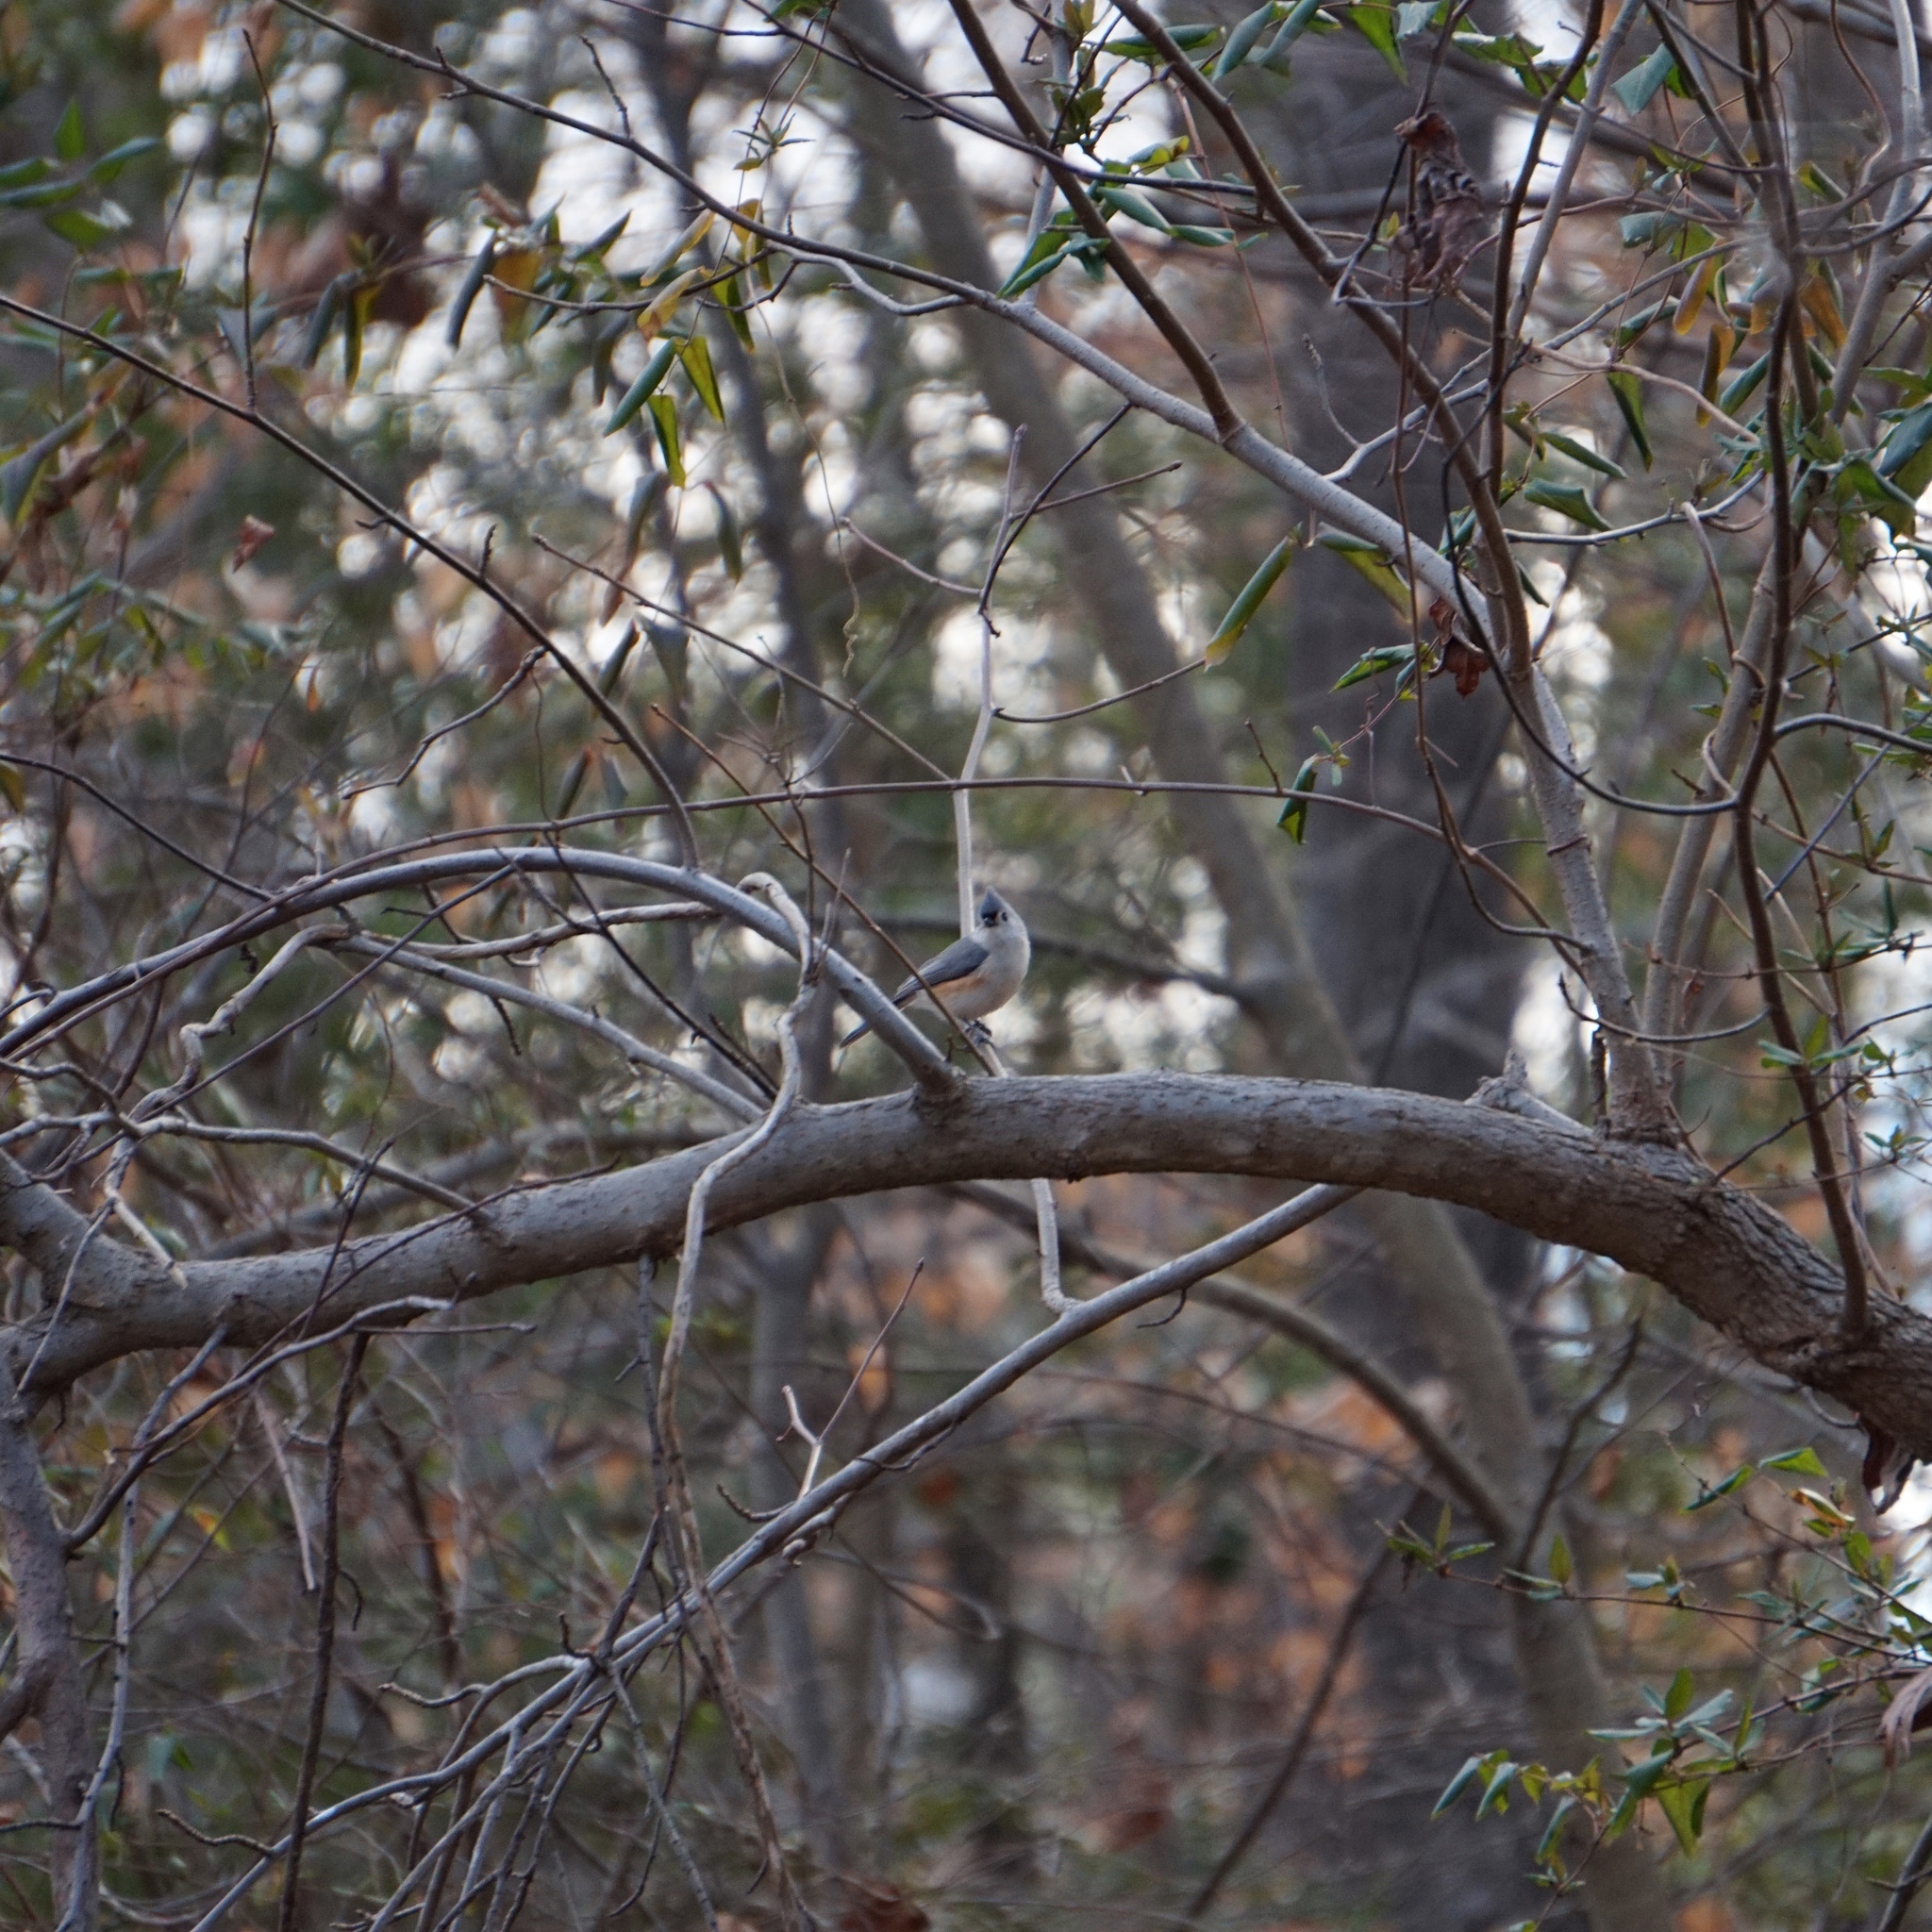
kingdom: Animalia
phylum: Chordata
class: Aves
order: Passeriformes
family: Paridae
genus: Baeolophus
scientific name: Baeolophus bicolor
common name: Tufted titmouse
